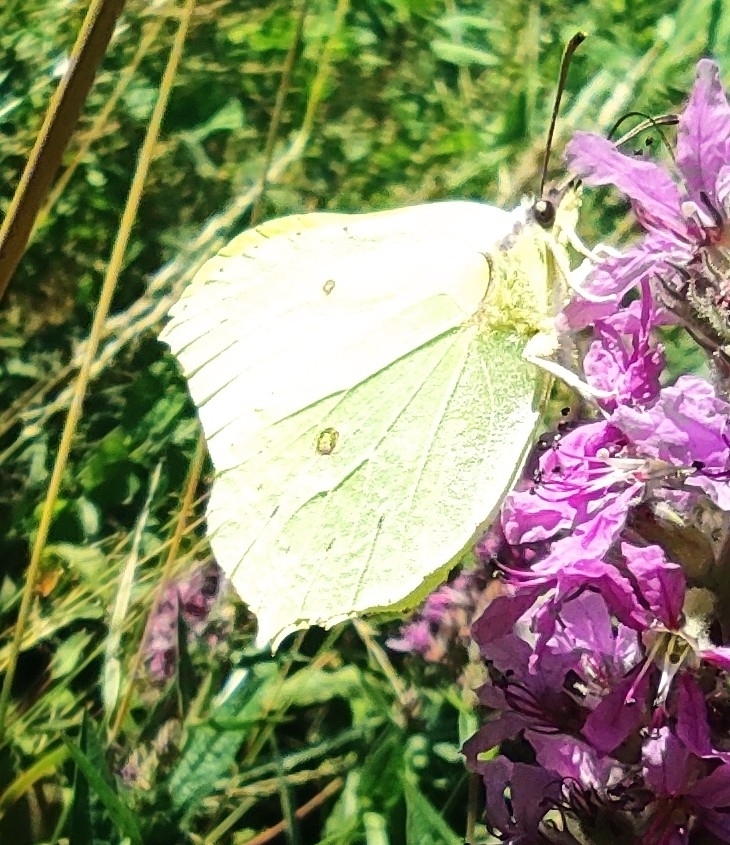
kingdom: Animalia
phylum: Arthropoda
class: Insecta
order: Lepidoptera
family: Pieridae
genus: Gonepteryx
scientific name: Gonepteryx rhamni
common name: Brimstone
